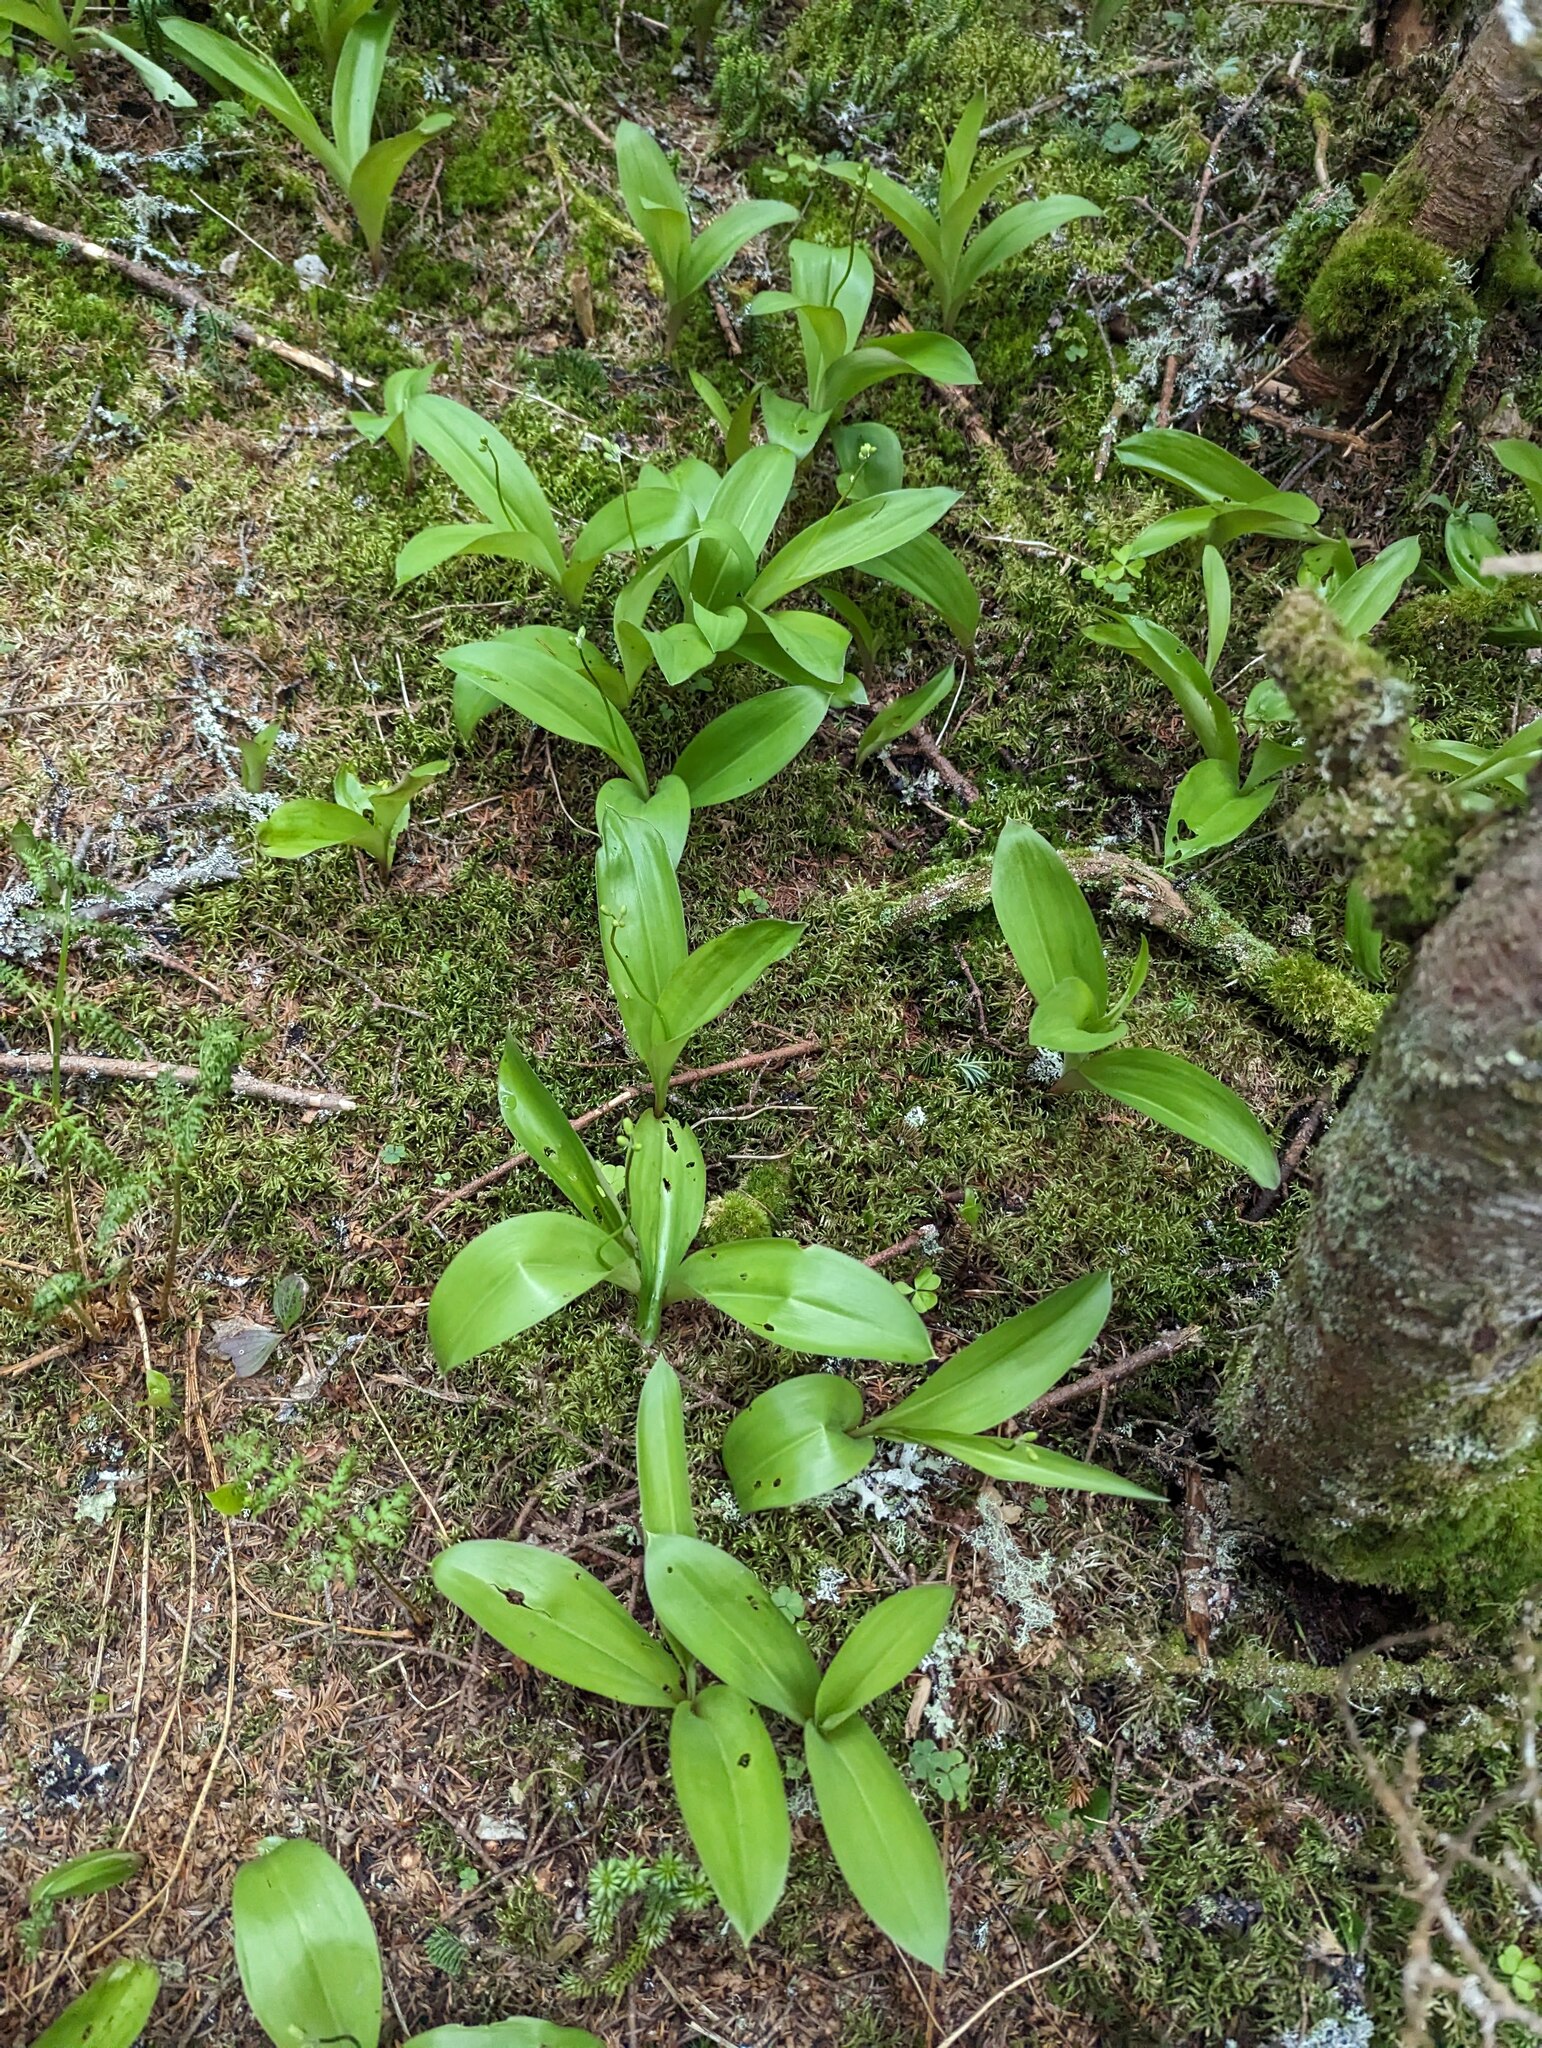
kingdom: Plantae
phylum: Tracheophyta
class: Liliopsida
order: Liliales
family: Liliaceae
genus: Clintonia
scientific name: Clintonia borealis
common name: Yellow clintonia
